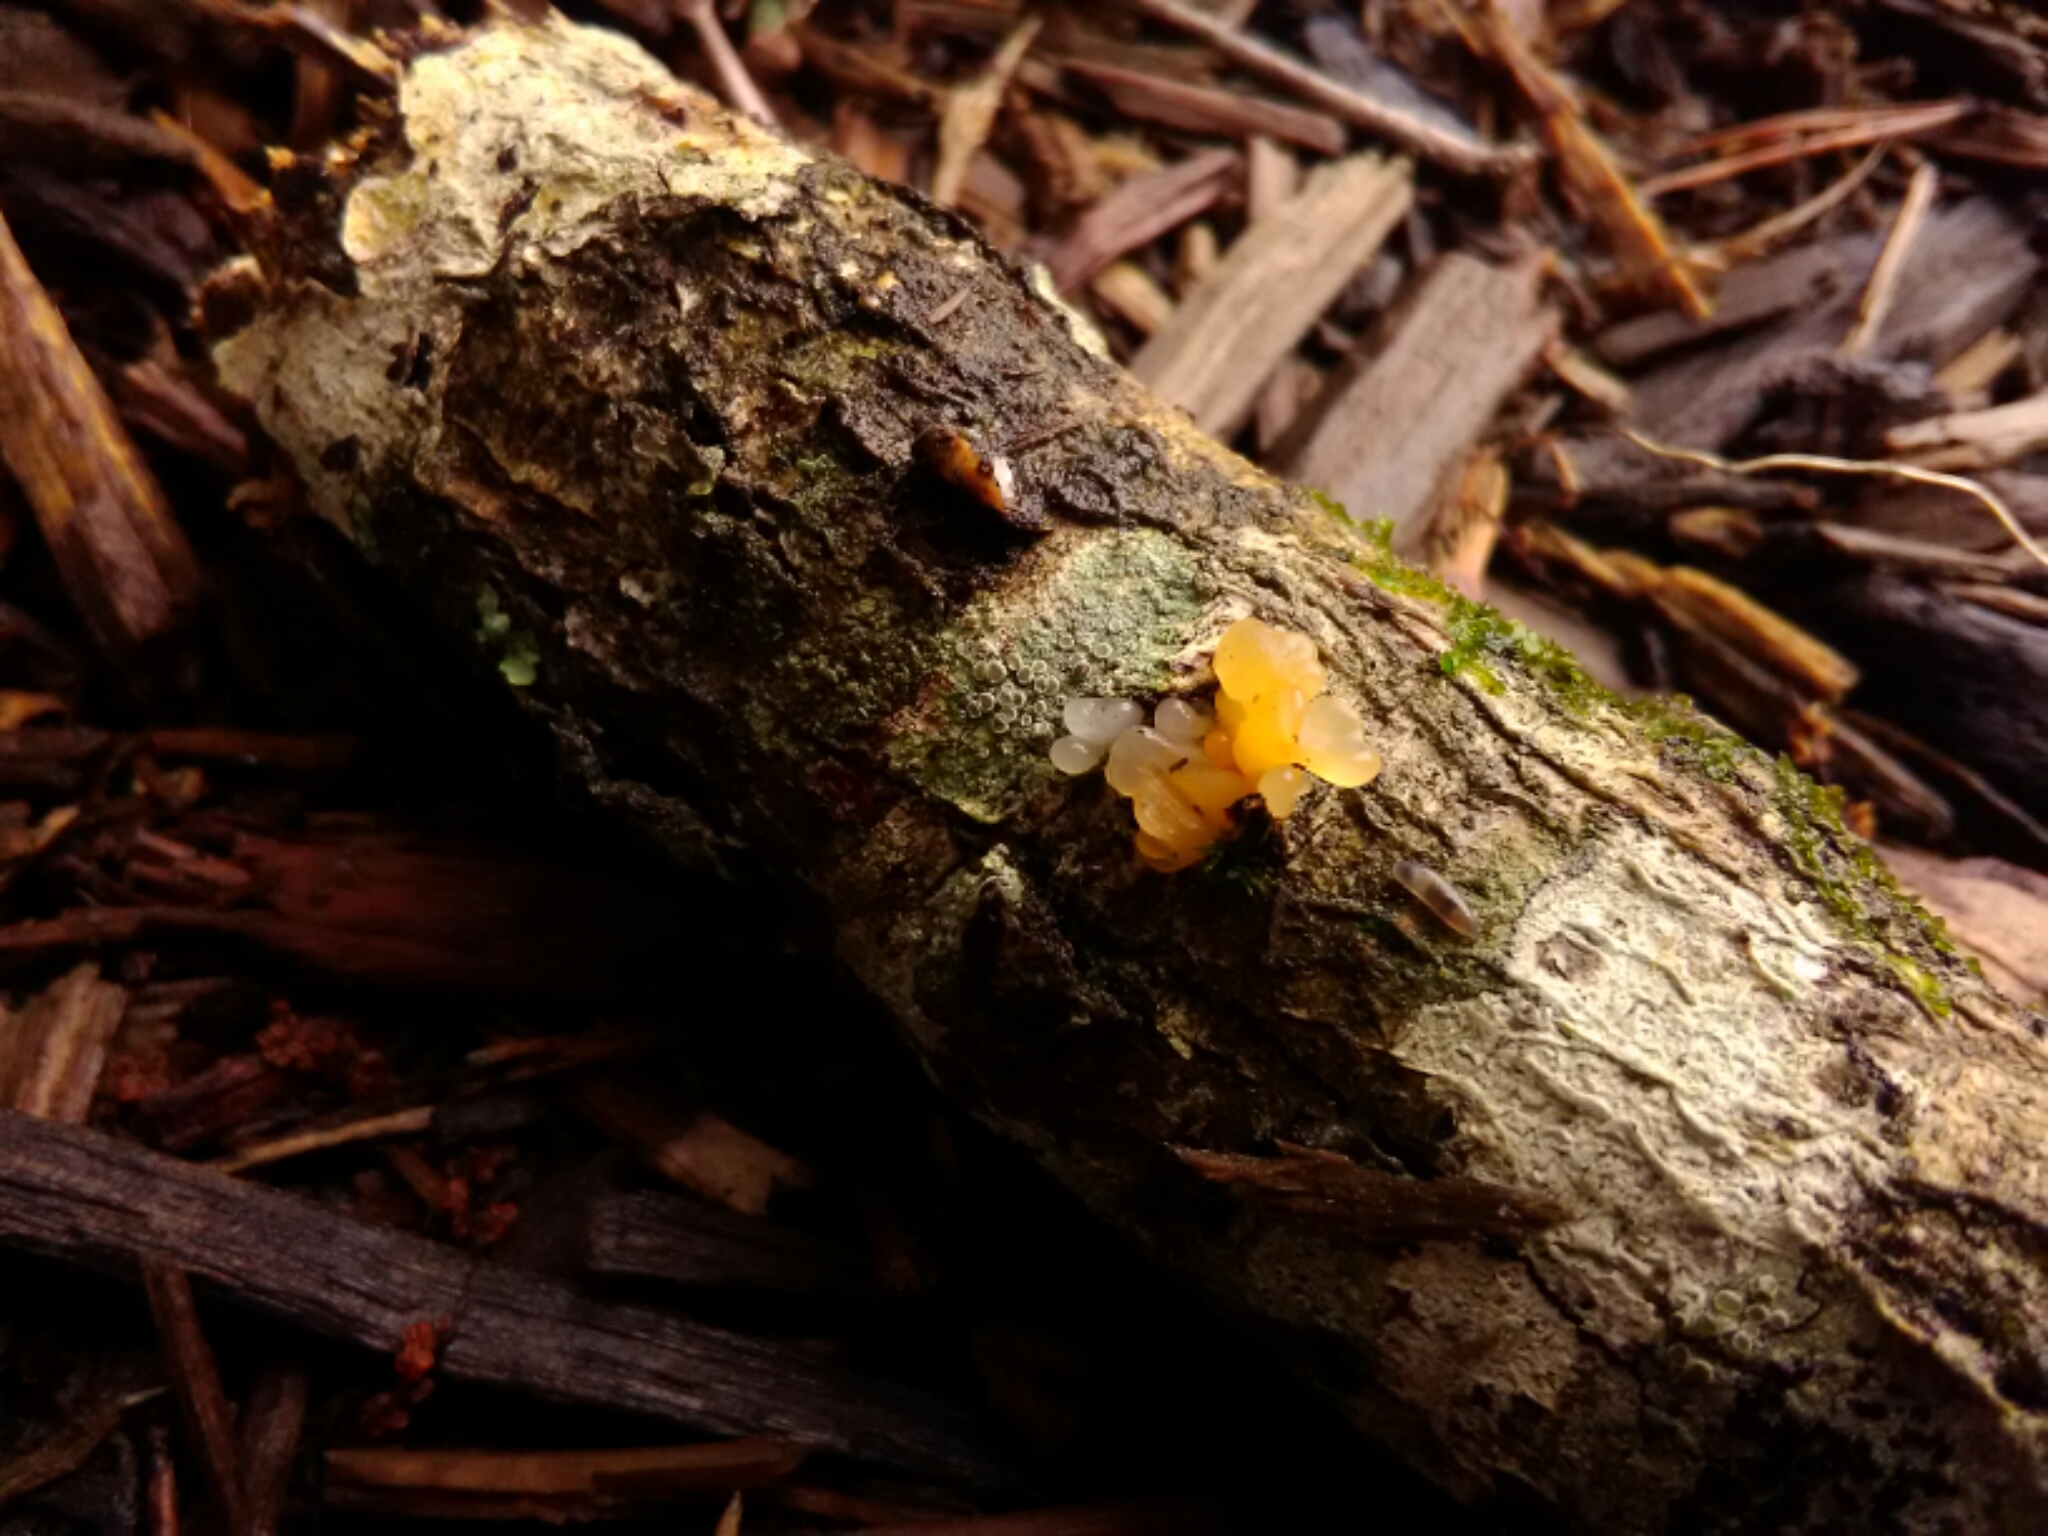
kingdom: Fungi
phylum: Basidiomycota
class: Tremellomycetes
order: Tremellales
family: Tremellaceae
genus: Tremella
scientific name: Tremella mesenterica
